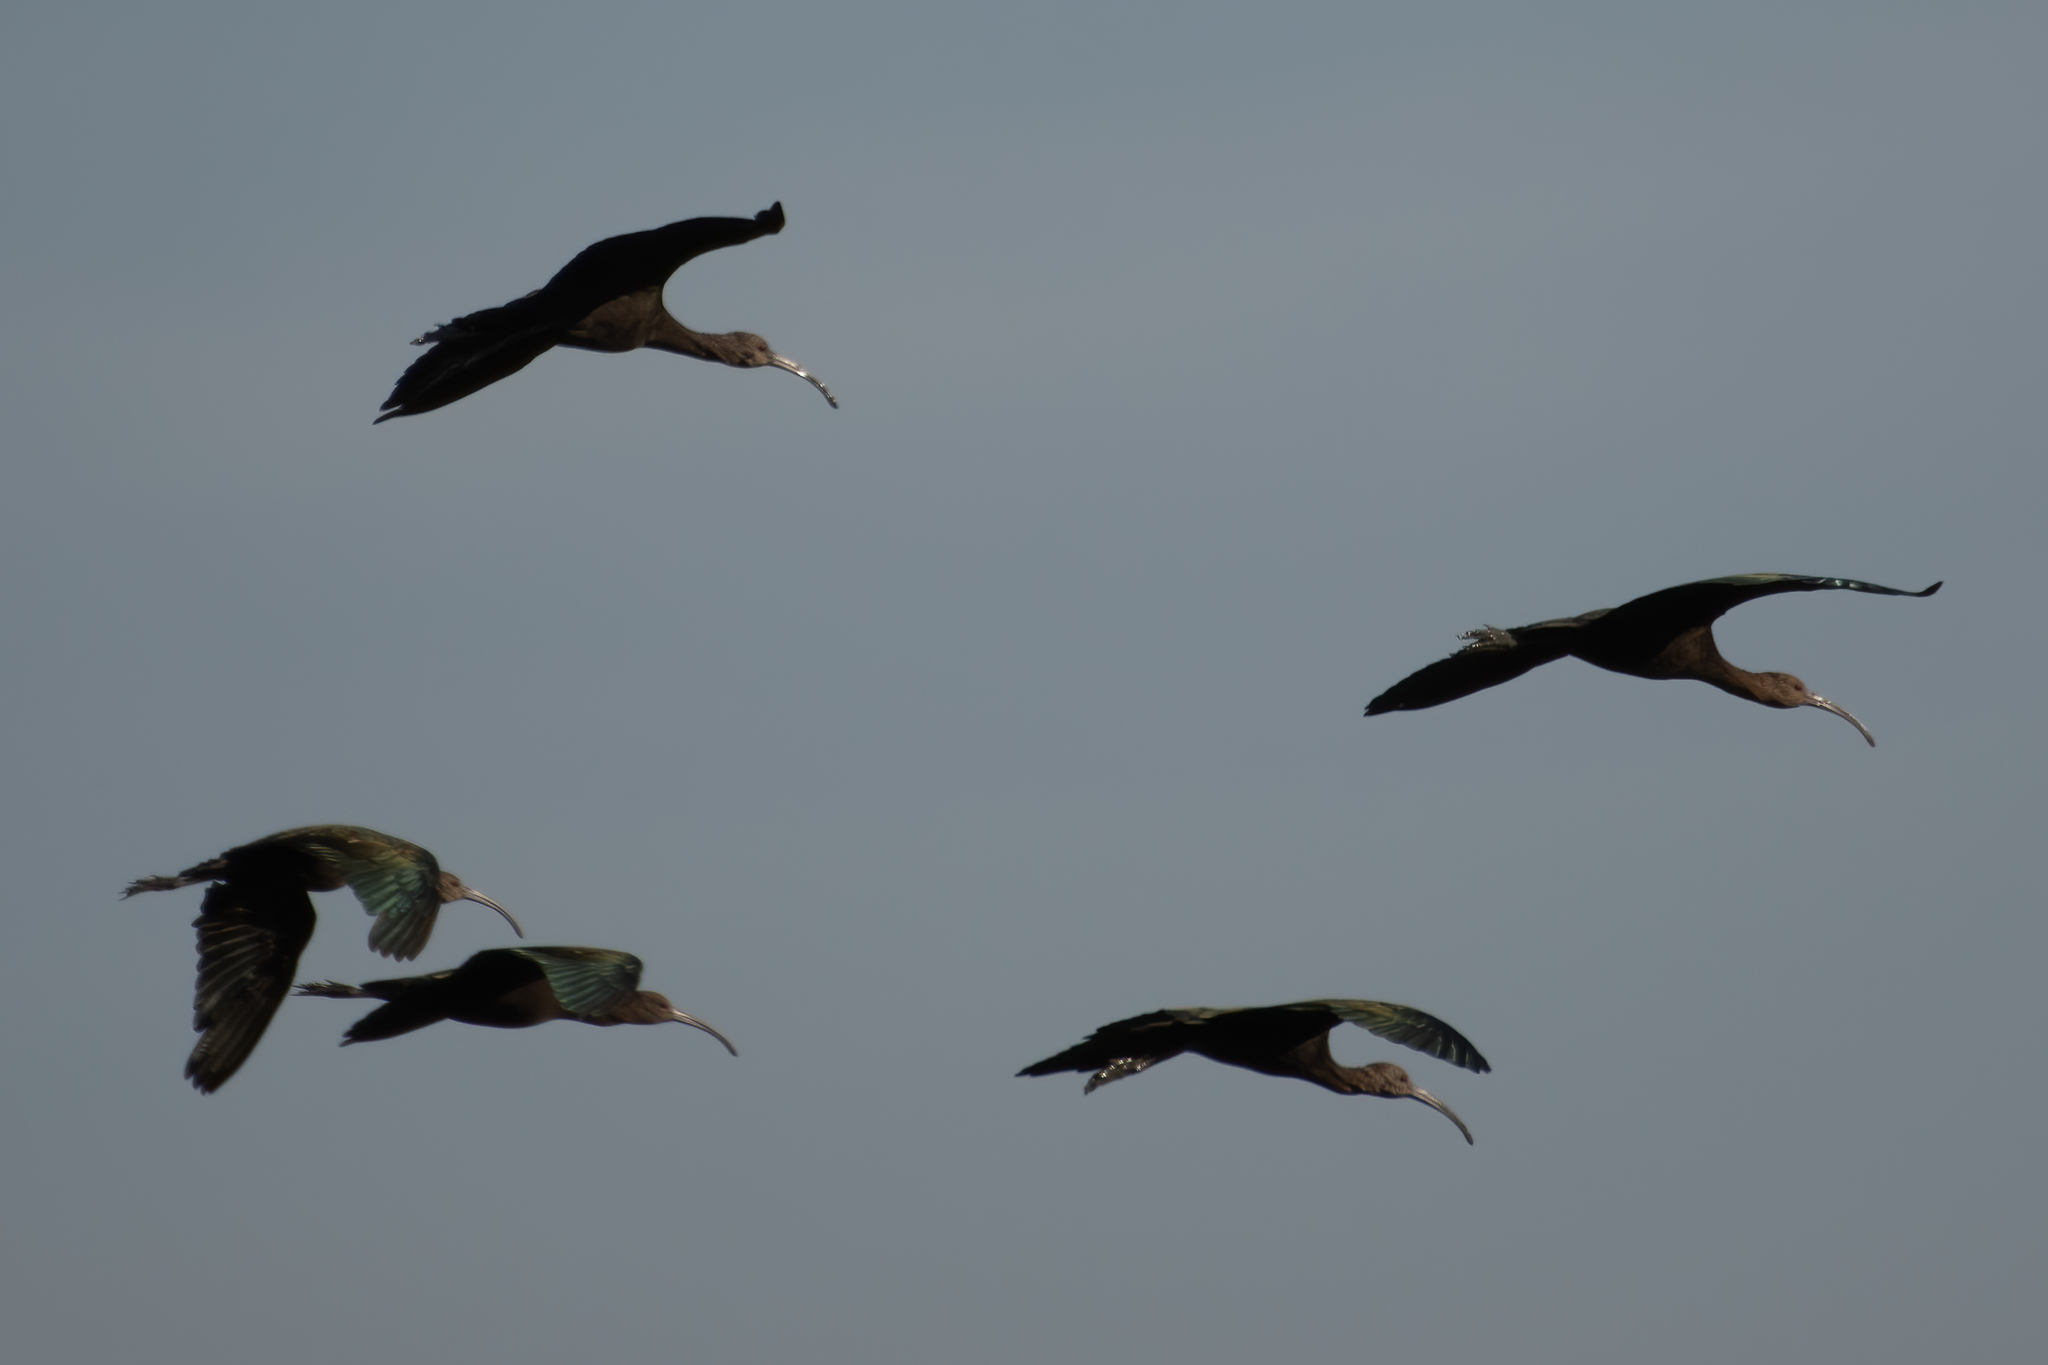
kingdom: Animalia
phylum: Chordata
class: Aves
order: Pelecaniformes
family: Threskiornithidae
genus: Plegadis
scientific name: Plegadis chihi
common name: White-faced ibis
